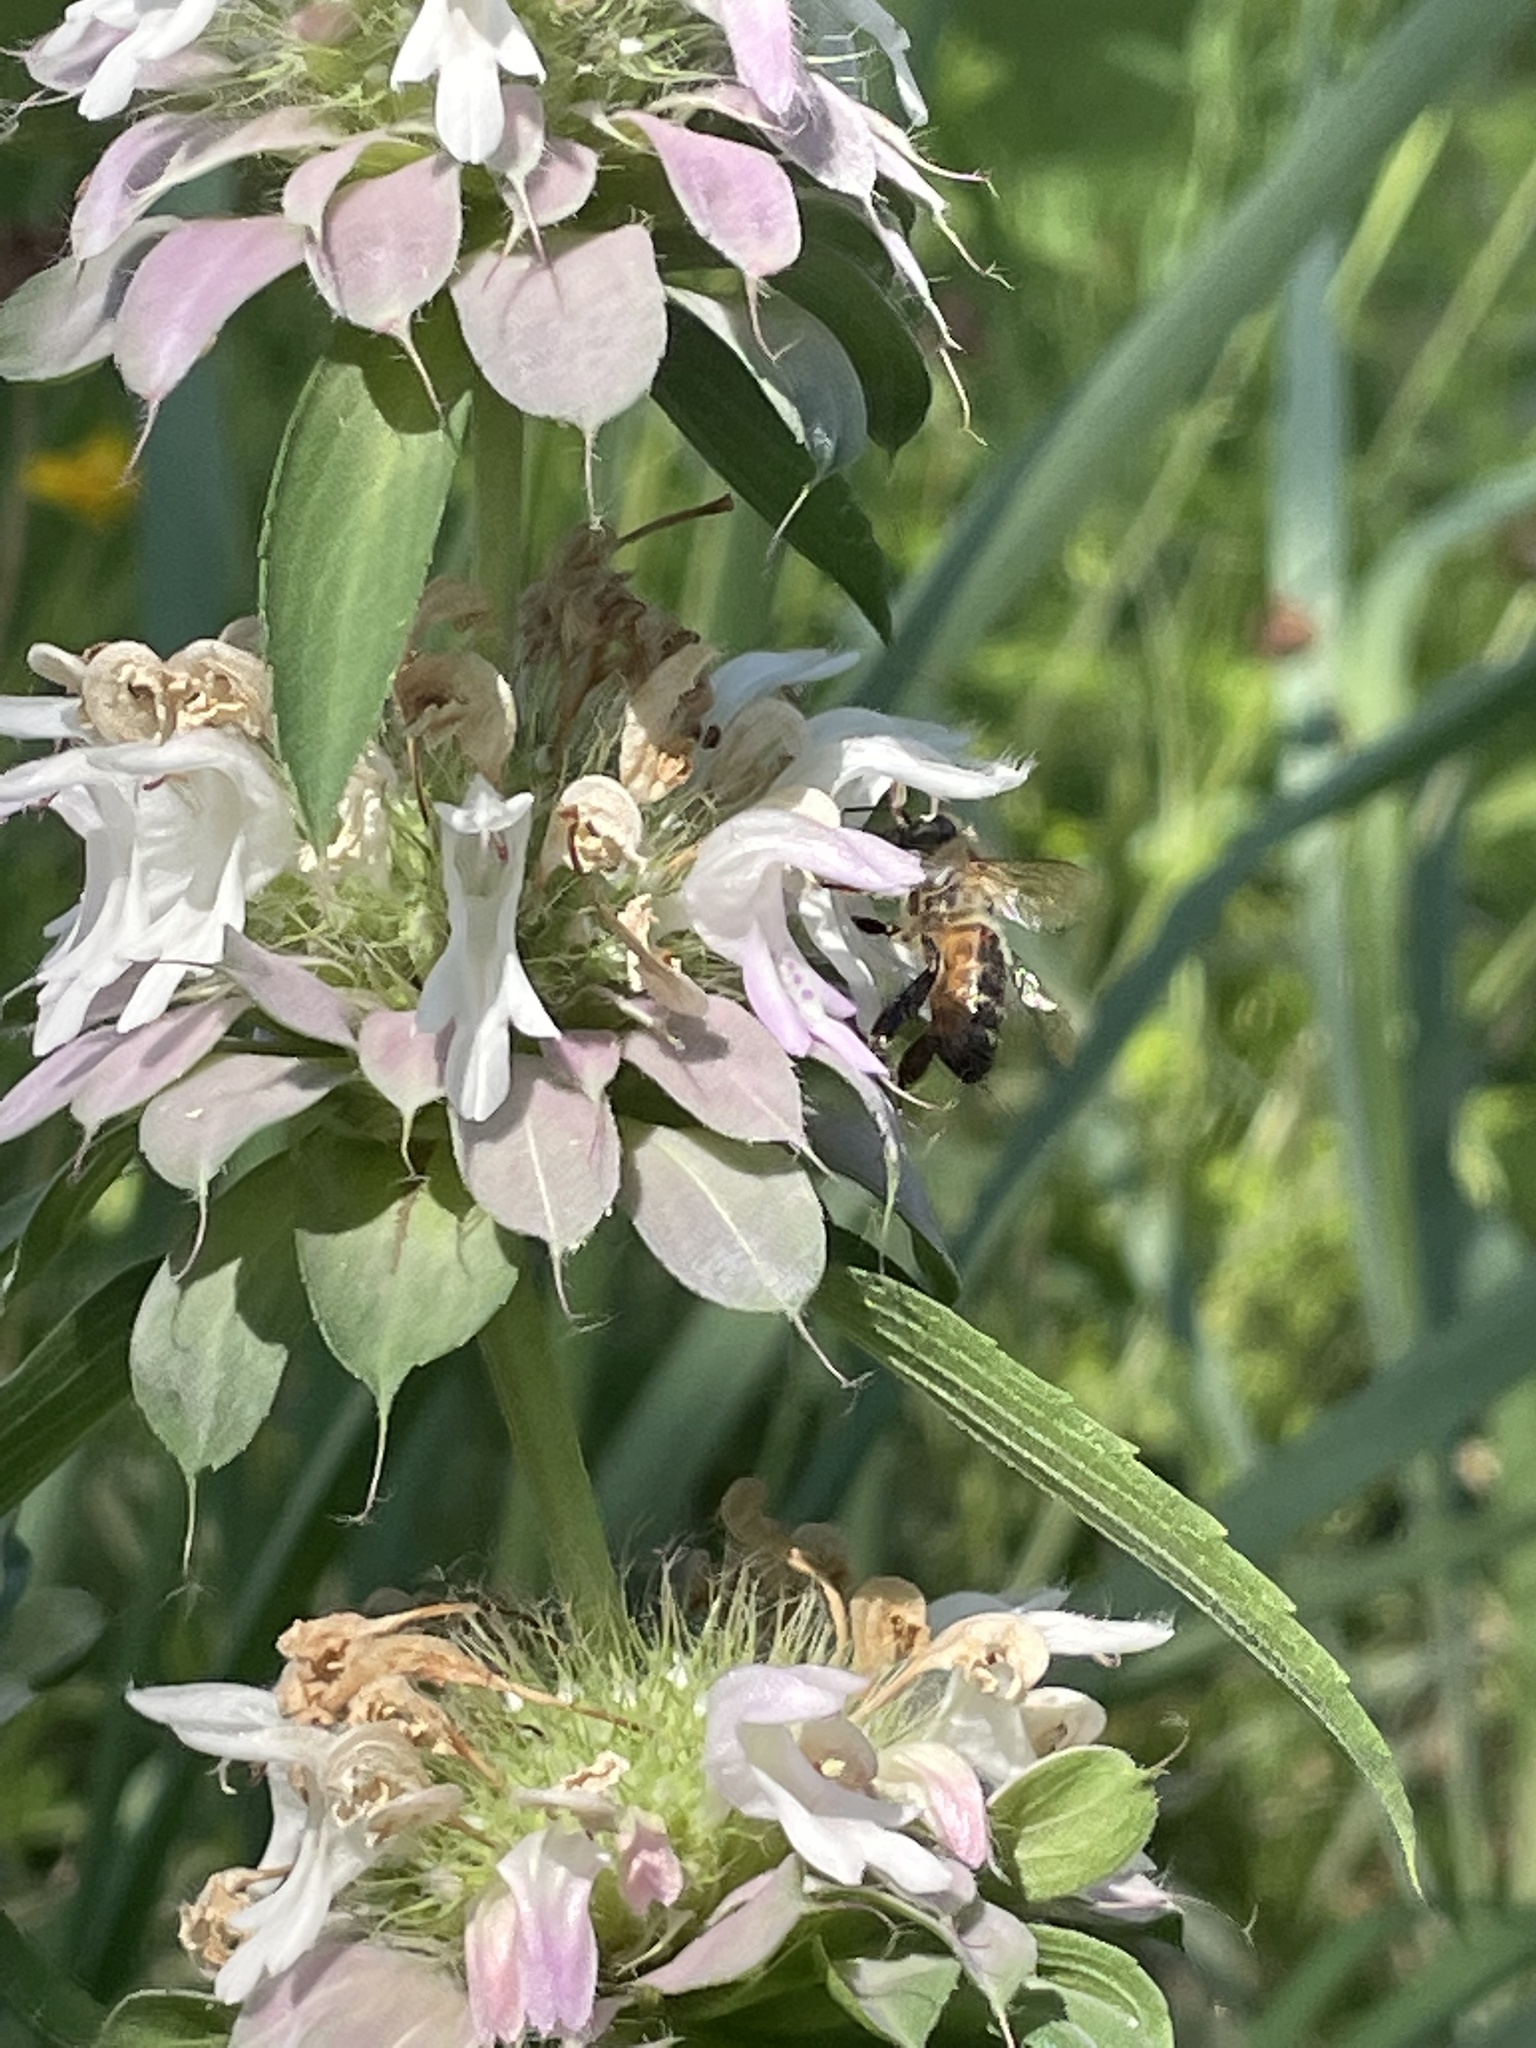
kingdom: Animalia
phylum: Arthropoda
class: Insecta
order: Hymenoptera
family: Apidae
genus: Apis
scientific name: Apis mellifera
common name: Honey bee
